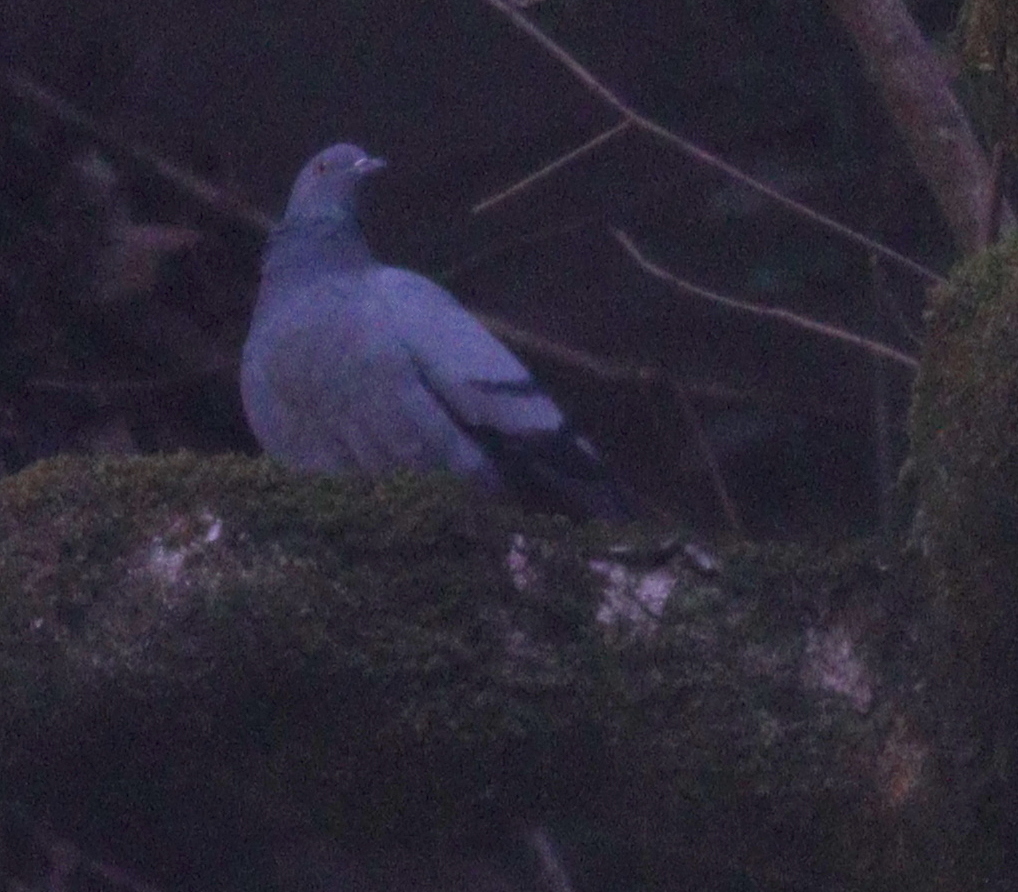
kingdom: Animalia
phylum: Chordata
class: Aves
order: Columbiformes
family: Columbidae
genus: Columba
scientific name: Columba livia
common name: Rock pigeon
